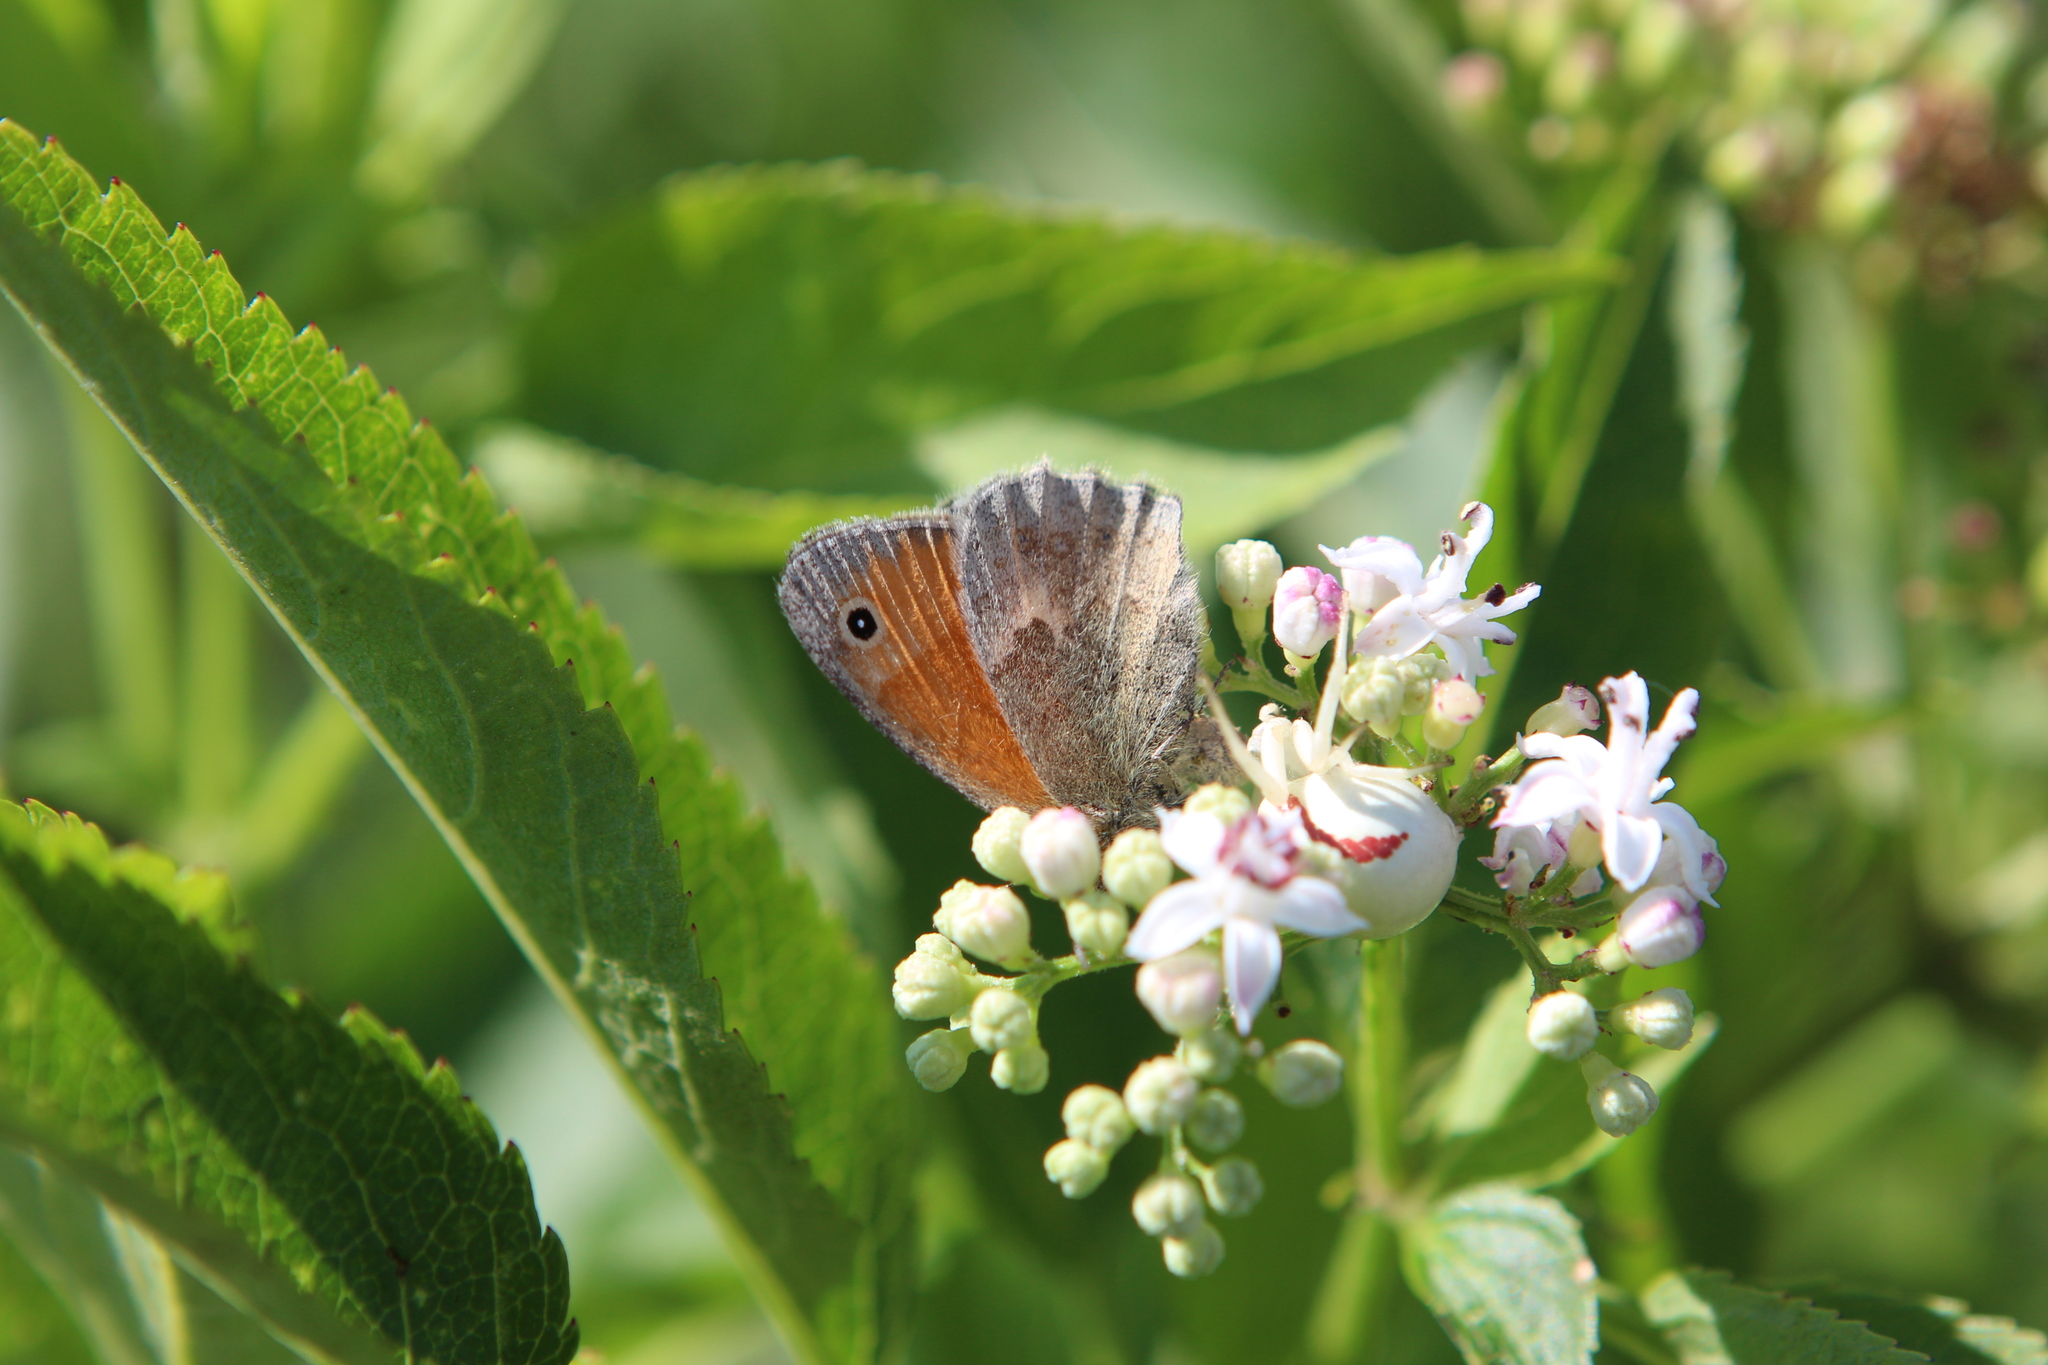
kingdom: Animalia
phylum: Arthropoda
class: Insecta
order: Lepidoptera
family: Nymphalidae
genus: Coenonympha
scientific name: Coenonympha pamphilus
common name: Small heath
